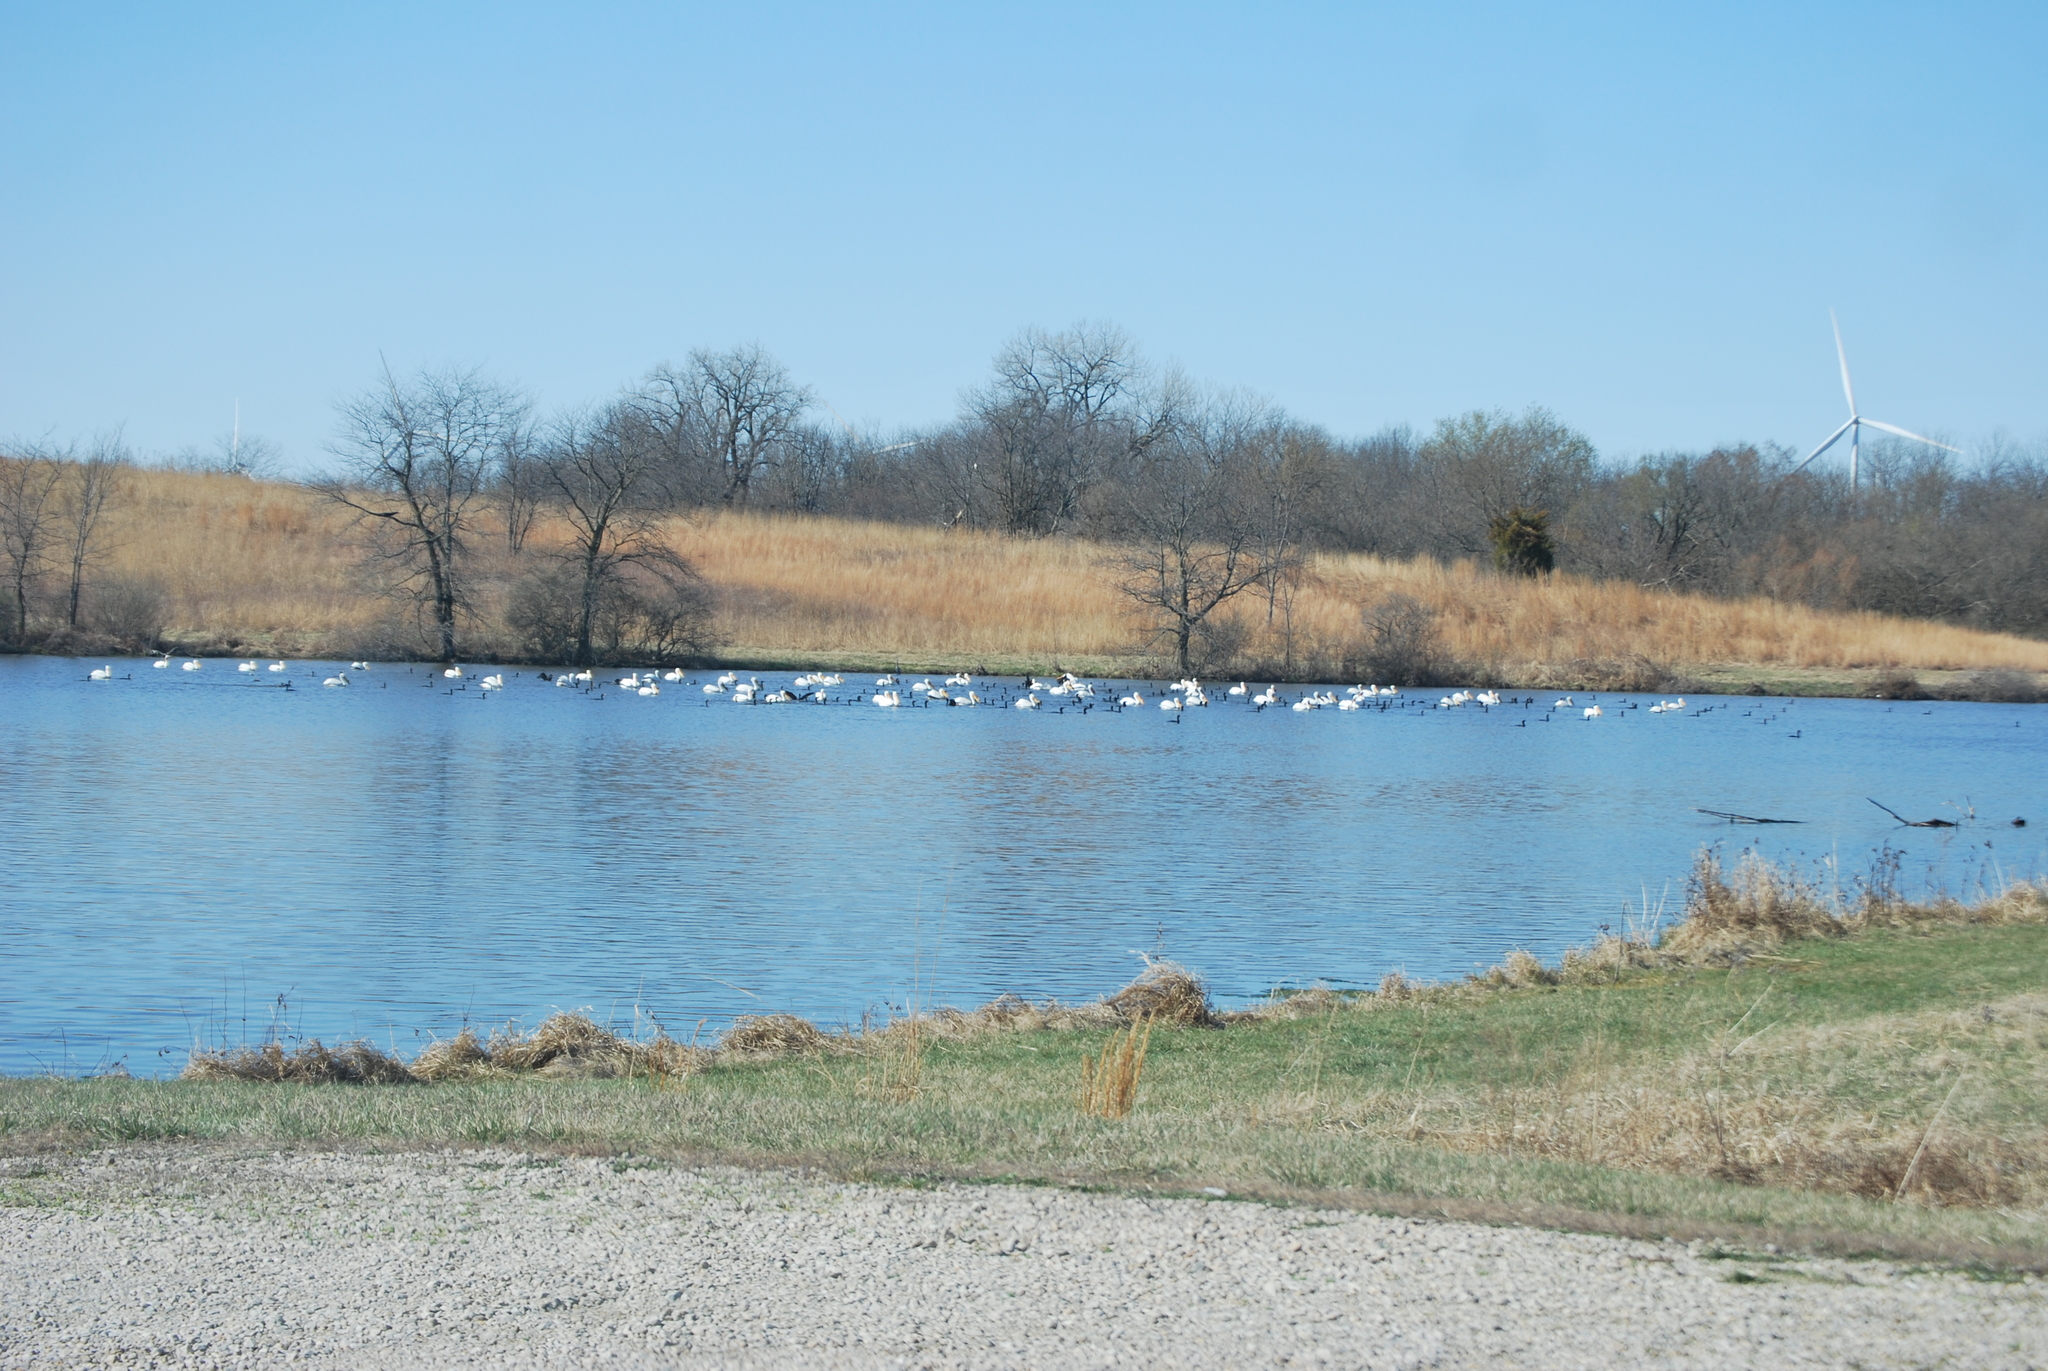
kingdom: Animalia
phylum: Chordata
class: Aves
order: Pelecaniformes
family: Pelecanidae
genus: Pelecanus
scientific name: Pelecanus erythrorhynchos
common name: American white pelican
